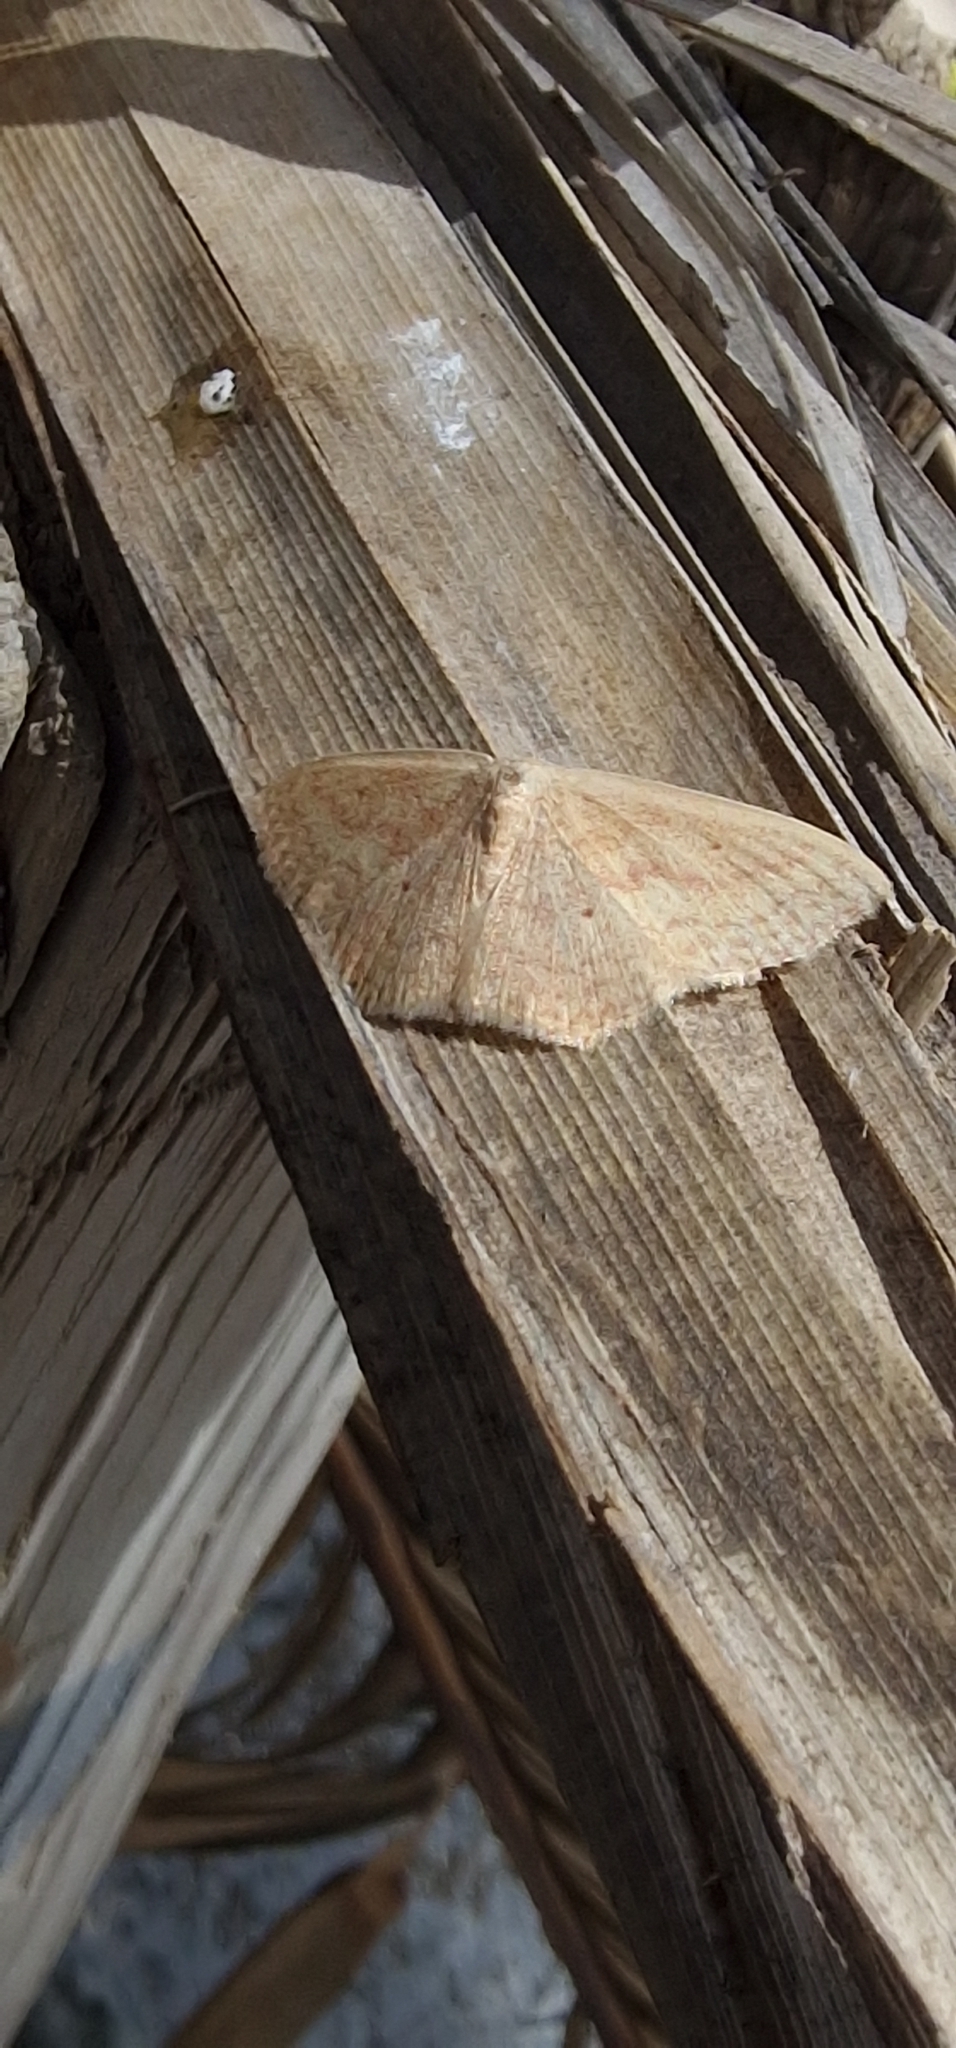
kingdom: Animalia
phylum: Arthropoda
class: Insecta
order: Lepidoptera
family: Geometridae
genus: Scopula
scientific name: Scopula irrorata
